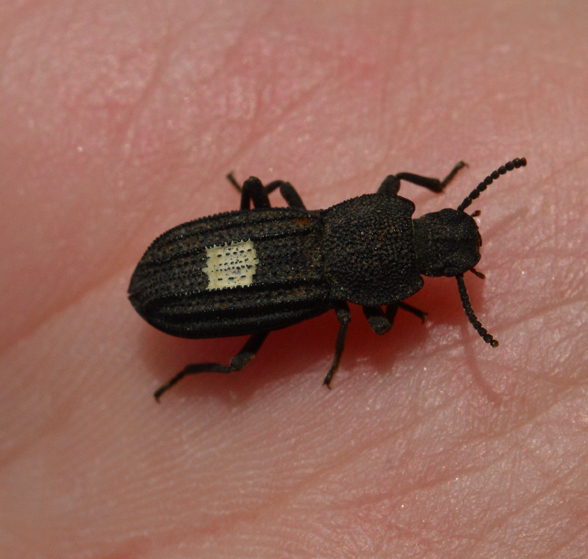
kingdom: Animalia
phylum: Arthropoda
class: Insecta
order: Coleoptera
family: Tenebrionidae
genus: Nyctoporis
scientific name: Nyctoporis carinata
